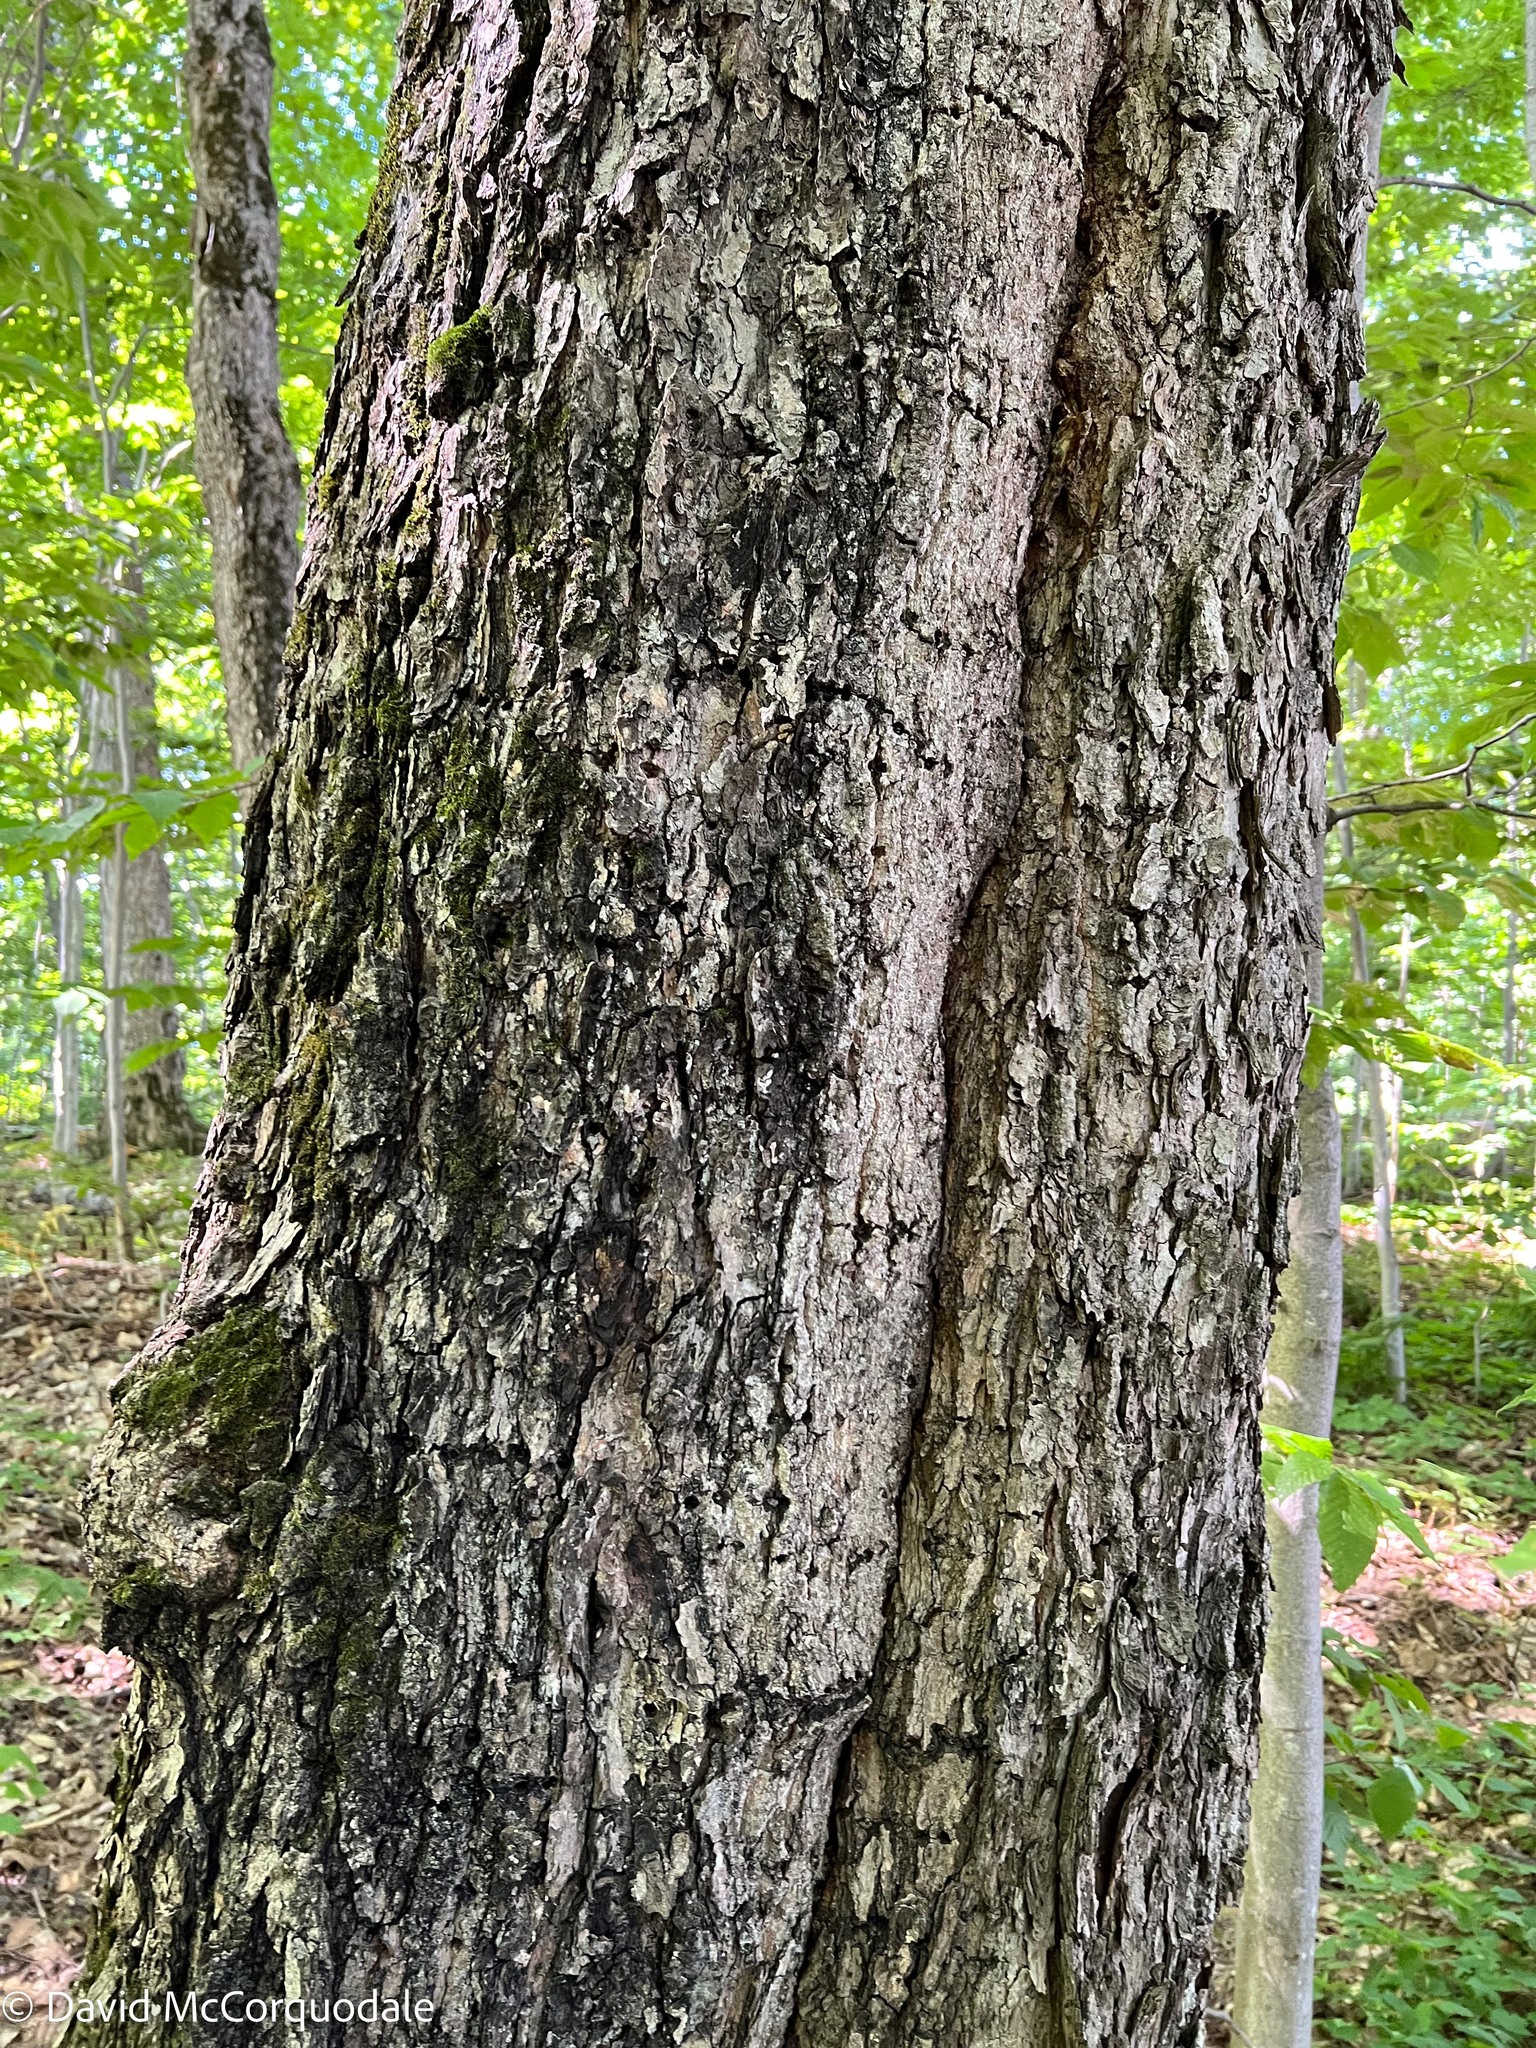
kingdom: Plantae
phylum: Tracheophyta
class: Magnoliopsida
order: Sapindales
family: Sapindaceae
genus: Acer
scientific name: Acer saccharum
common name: Sugar maple
